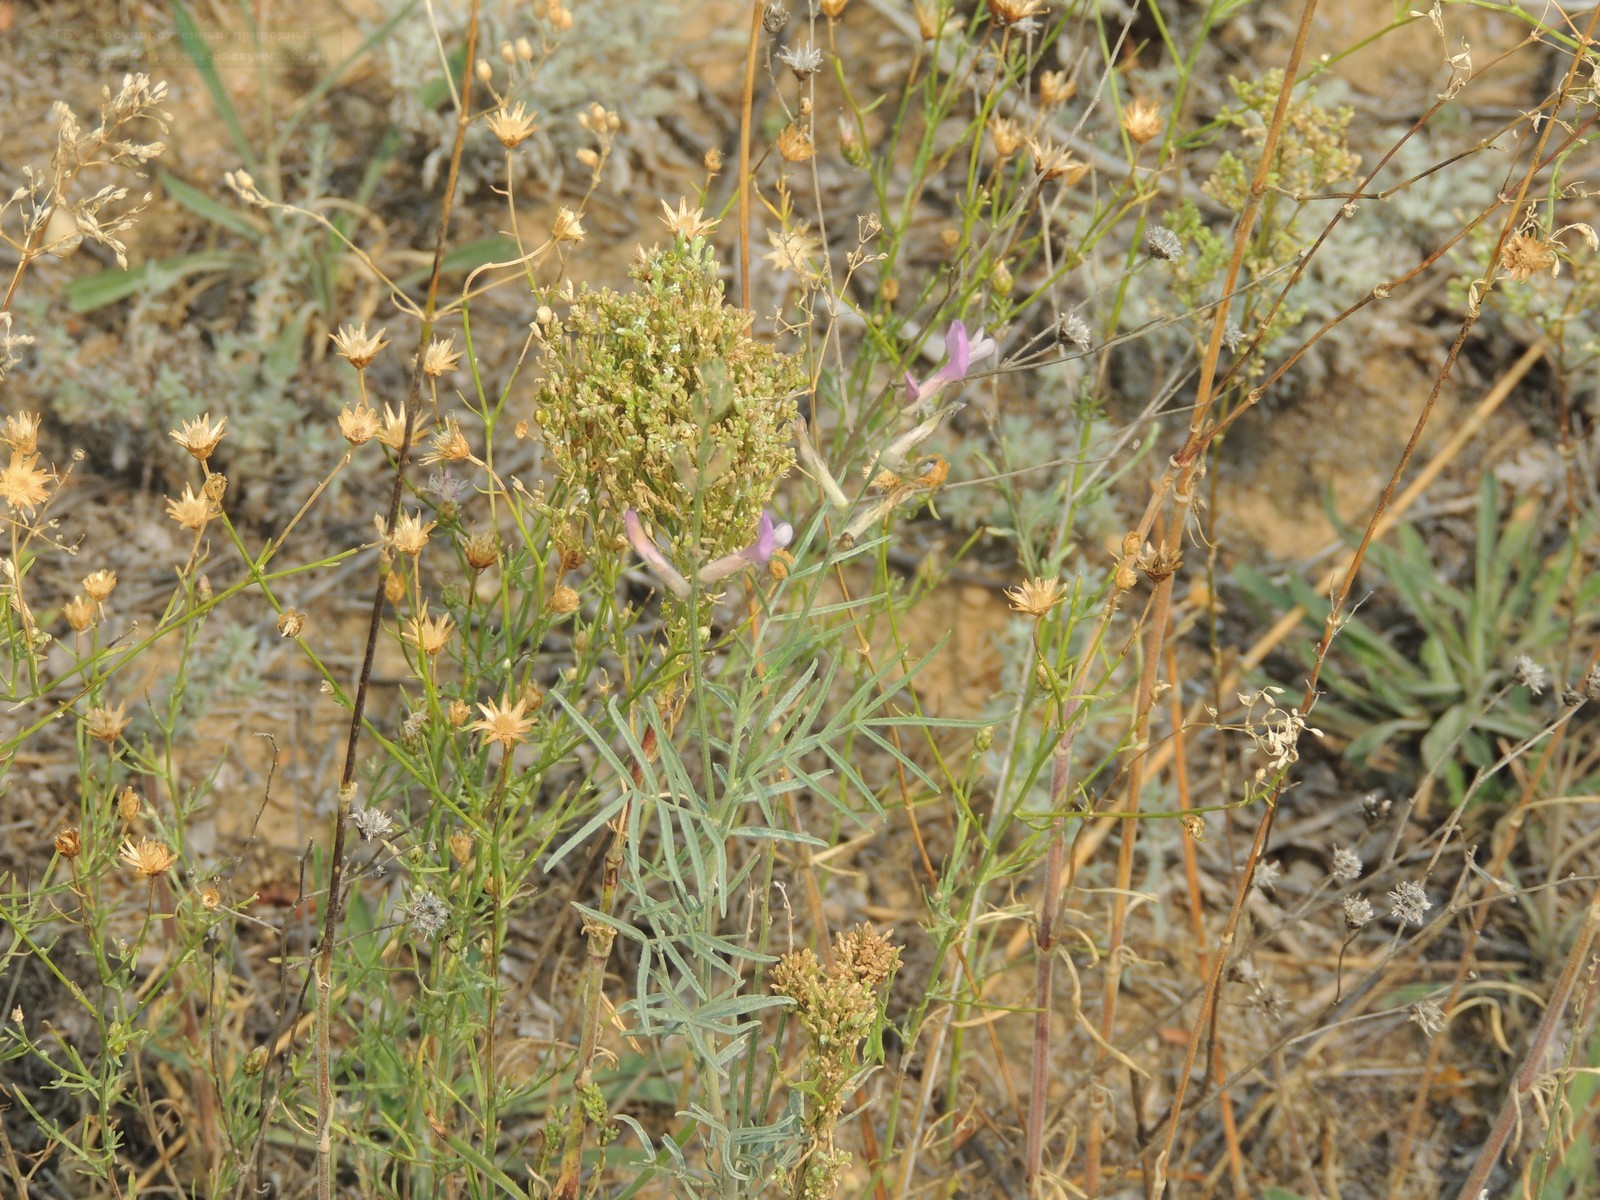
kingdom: Plantae
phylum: Tracheophyta
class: Magnoliopsida
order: Fabales
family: Fabaceae
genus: Astragalus
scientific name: Astragalus brachylobus
